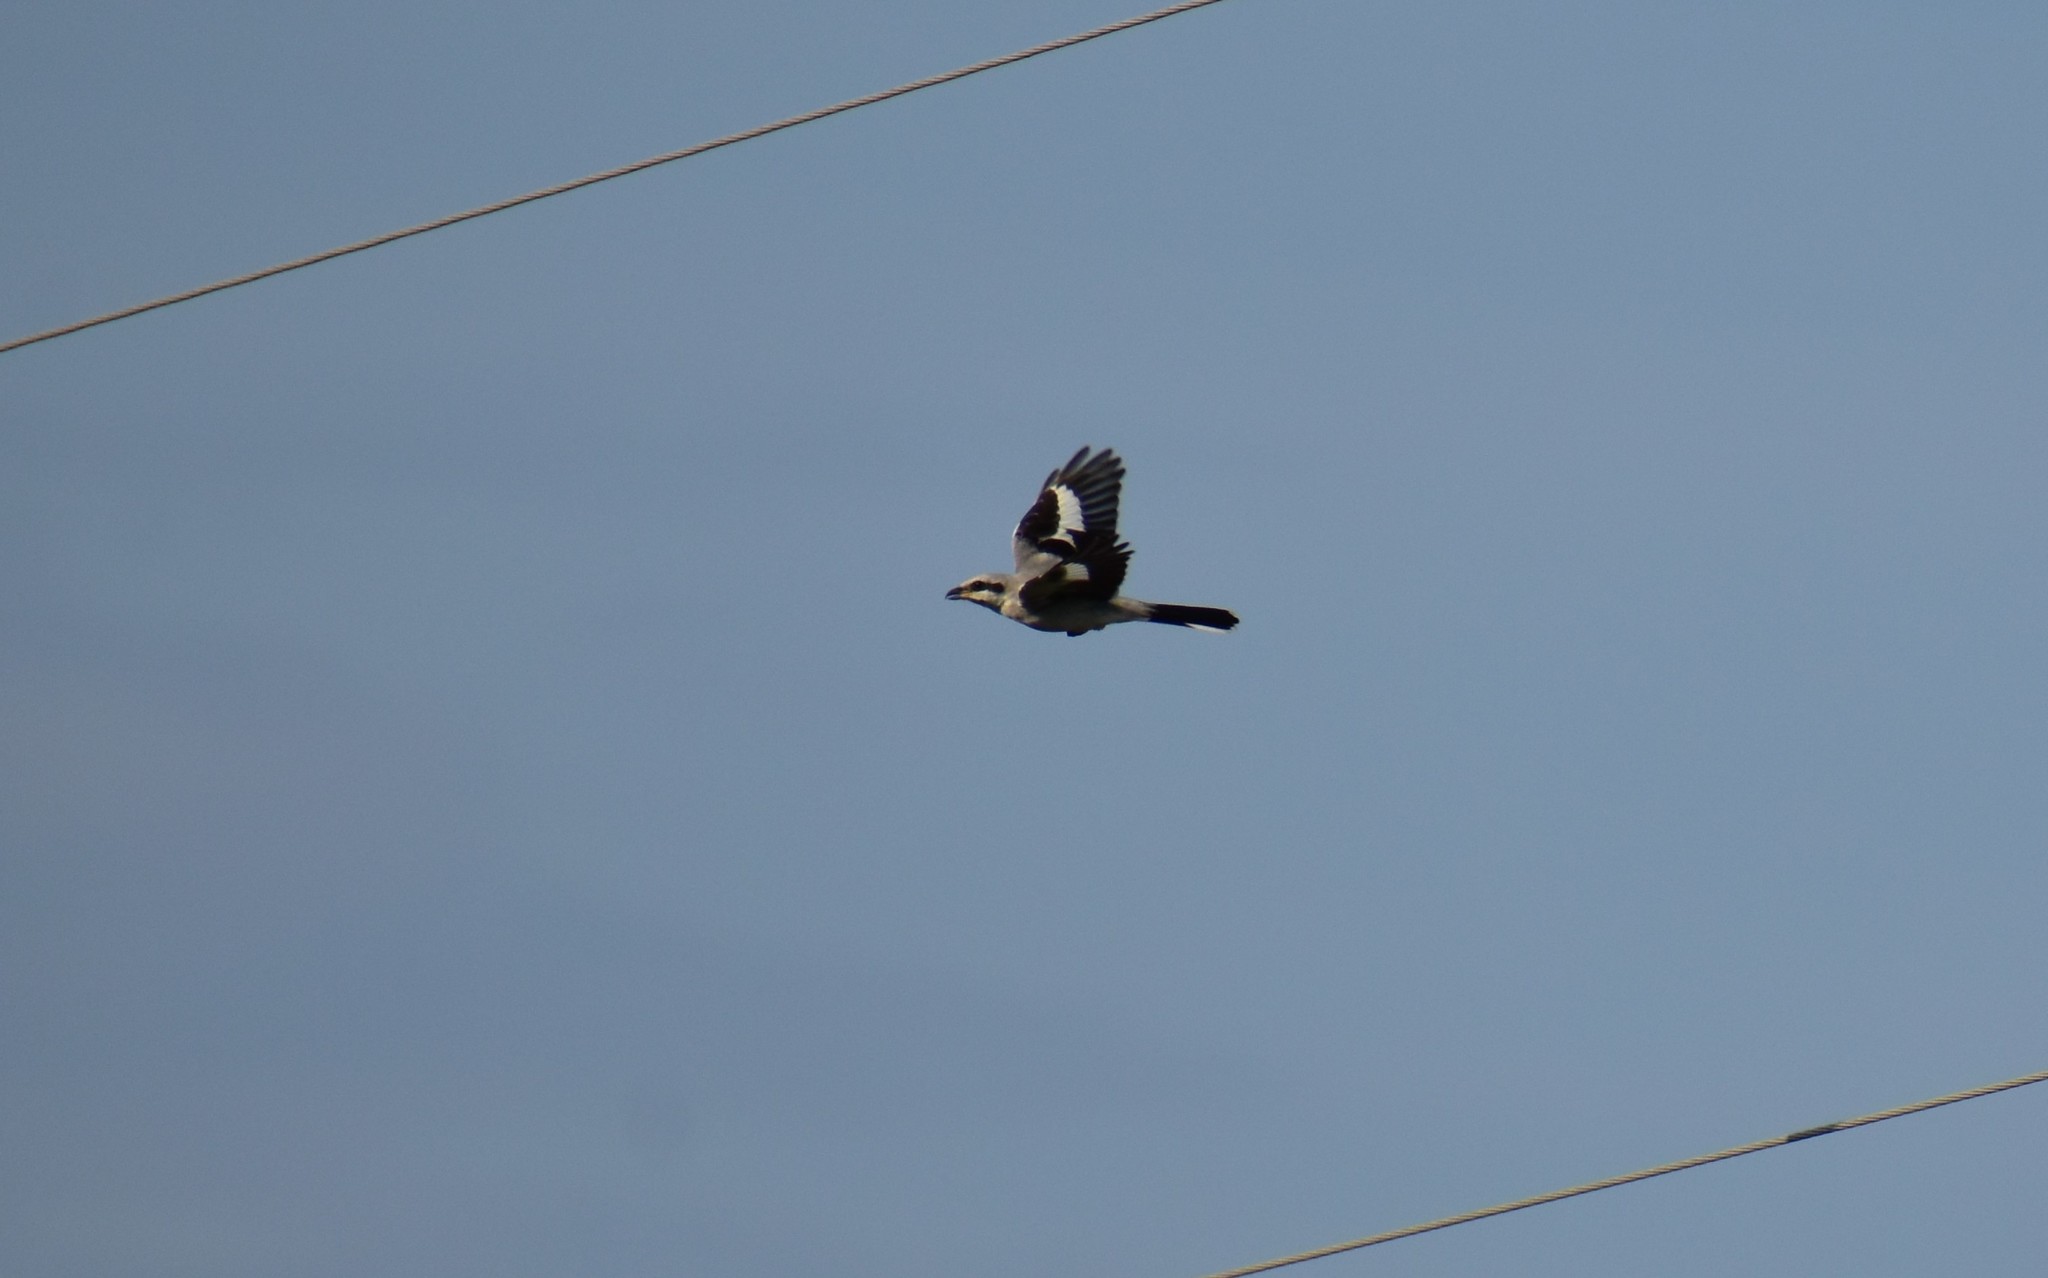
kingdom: Animalia
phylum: Chordata
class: Aves
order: Passeriformes
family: Laniidae
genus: Lanius
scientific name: Lanius excubitor
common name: Great grey shrike
